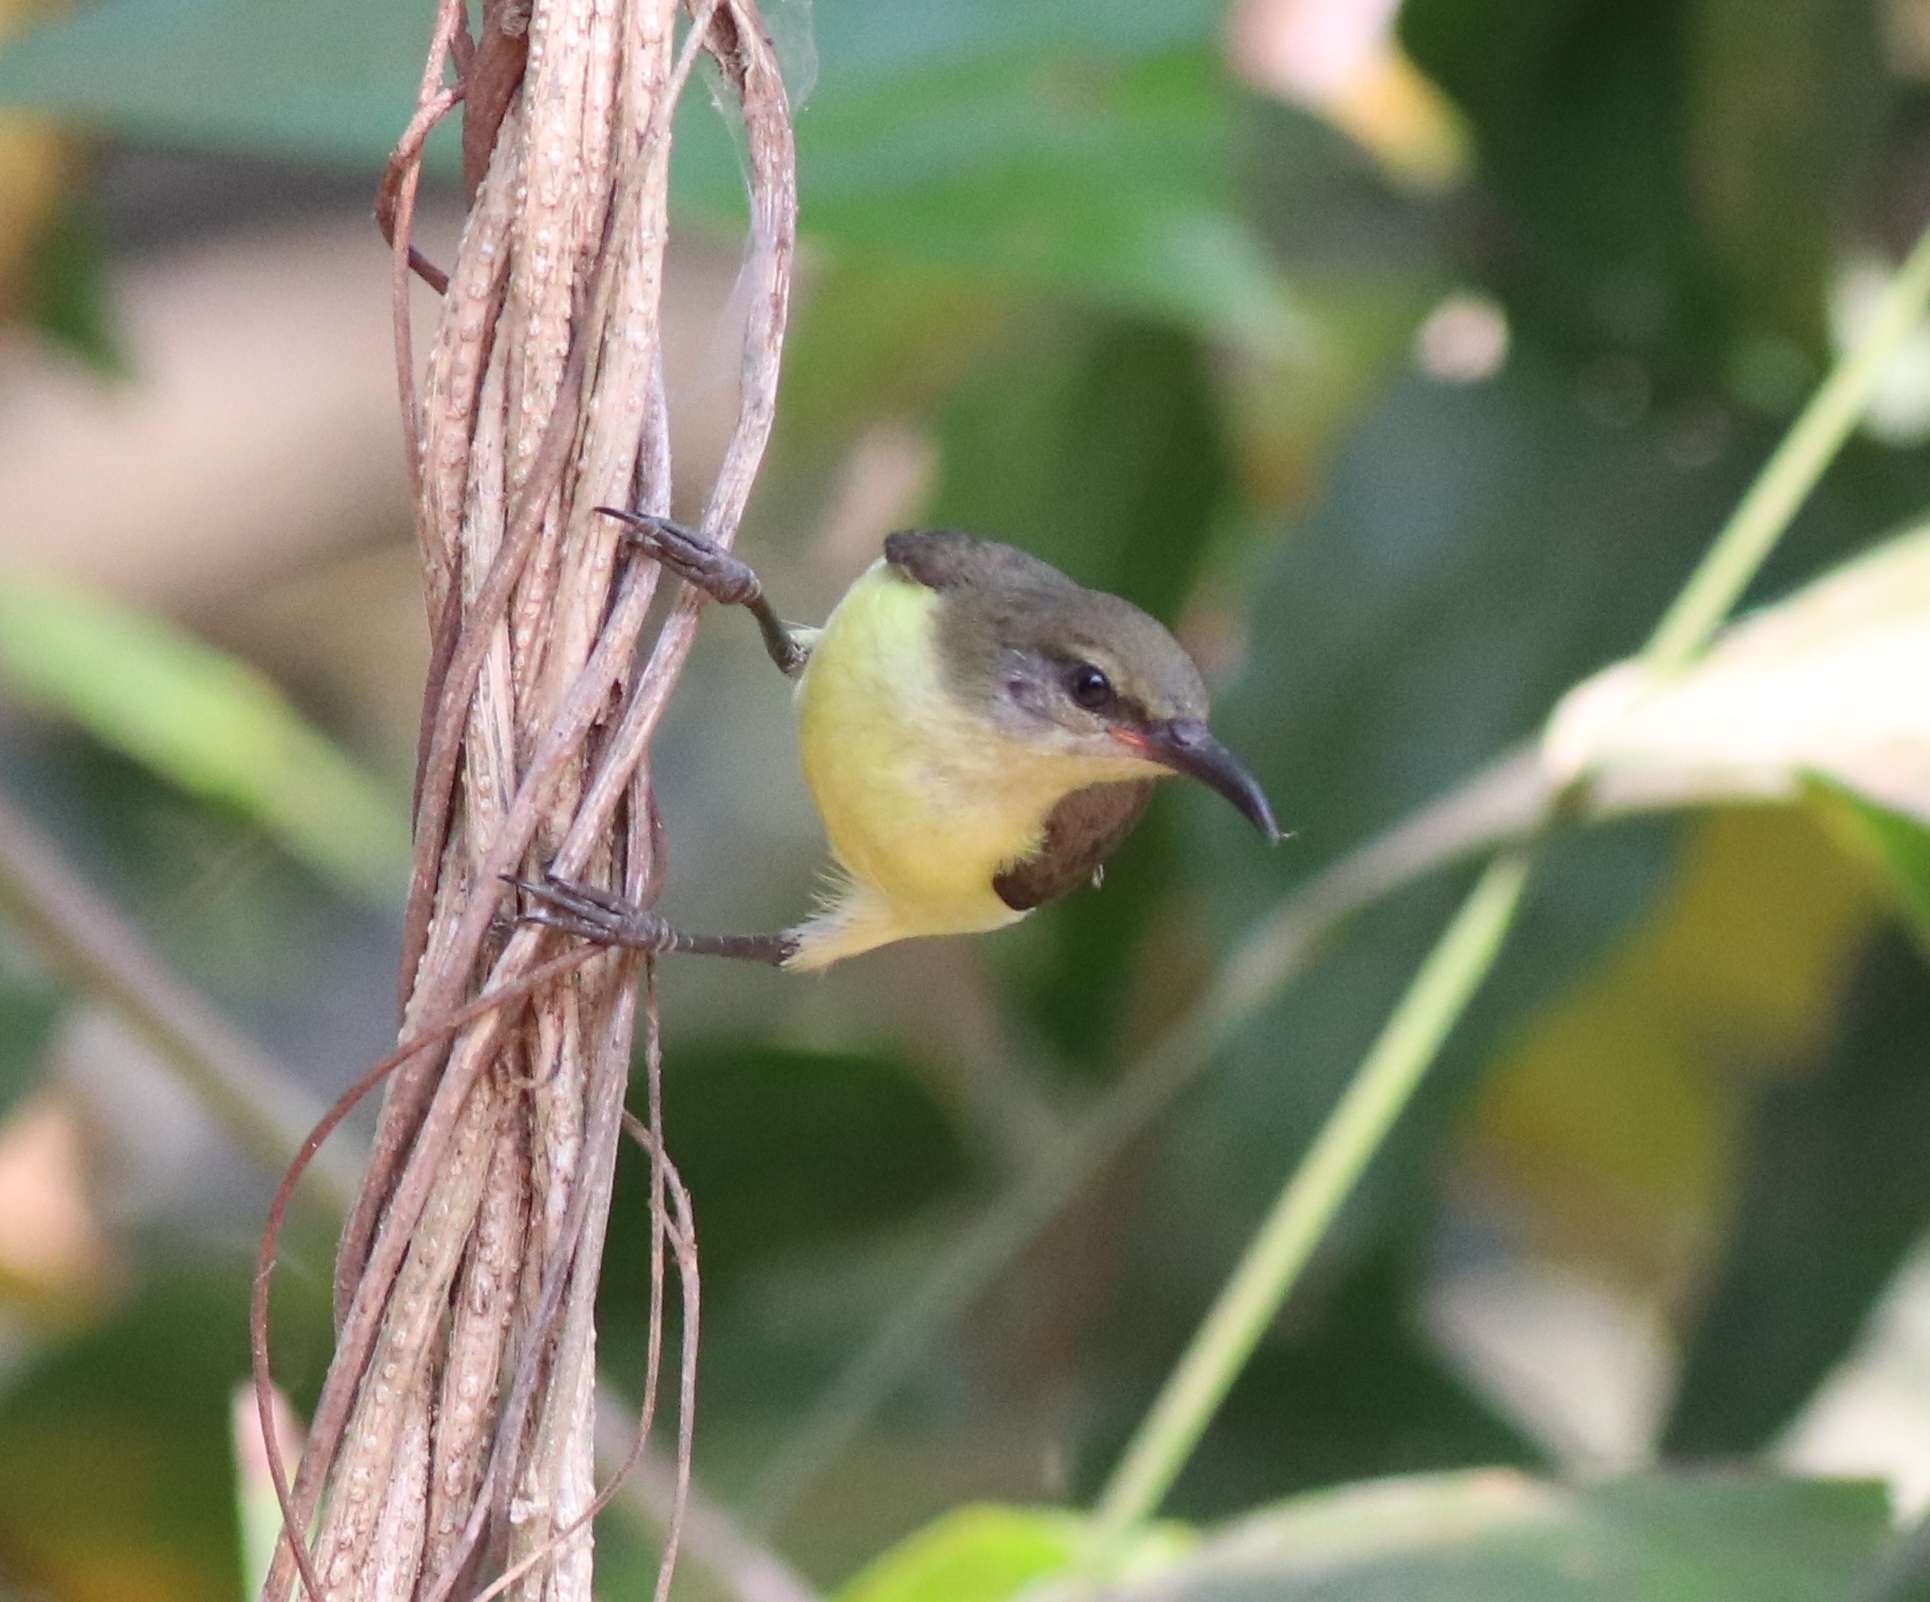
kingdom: Animalia
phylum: Chordata
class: Aves
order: Passeriformes
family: Nectariniidae
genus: Leptocoma
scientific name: Leptocoma zeylonica
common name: Purple-rumped sunbird
